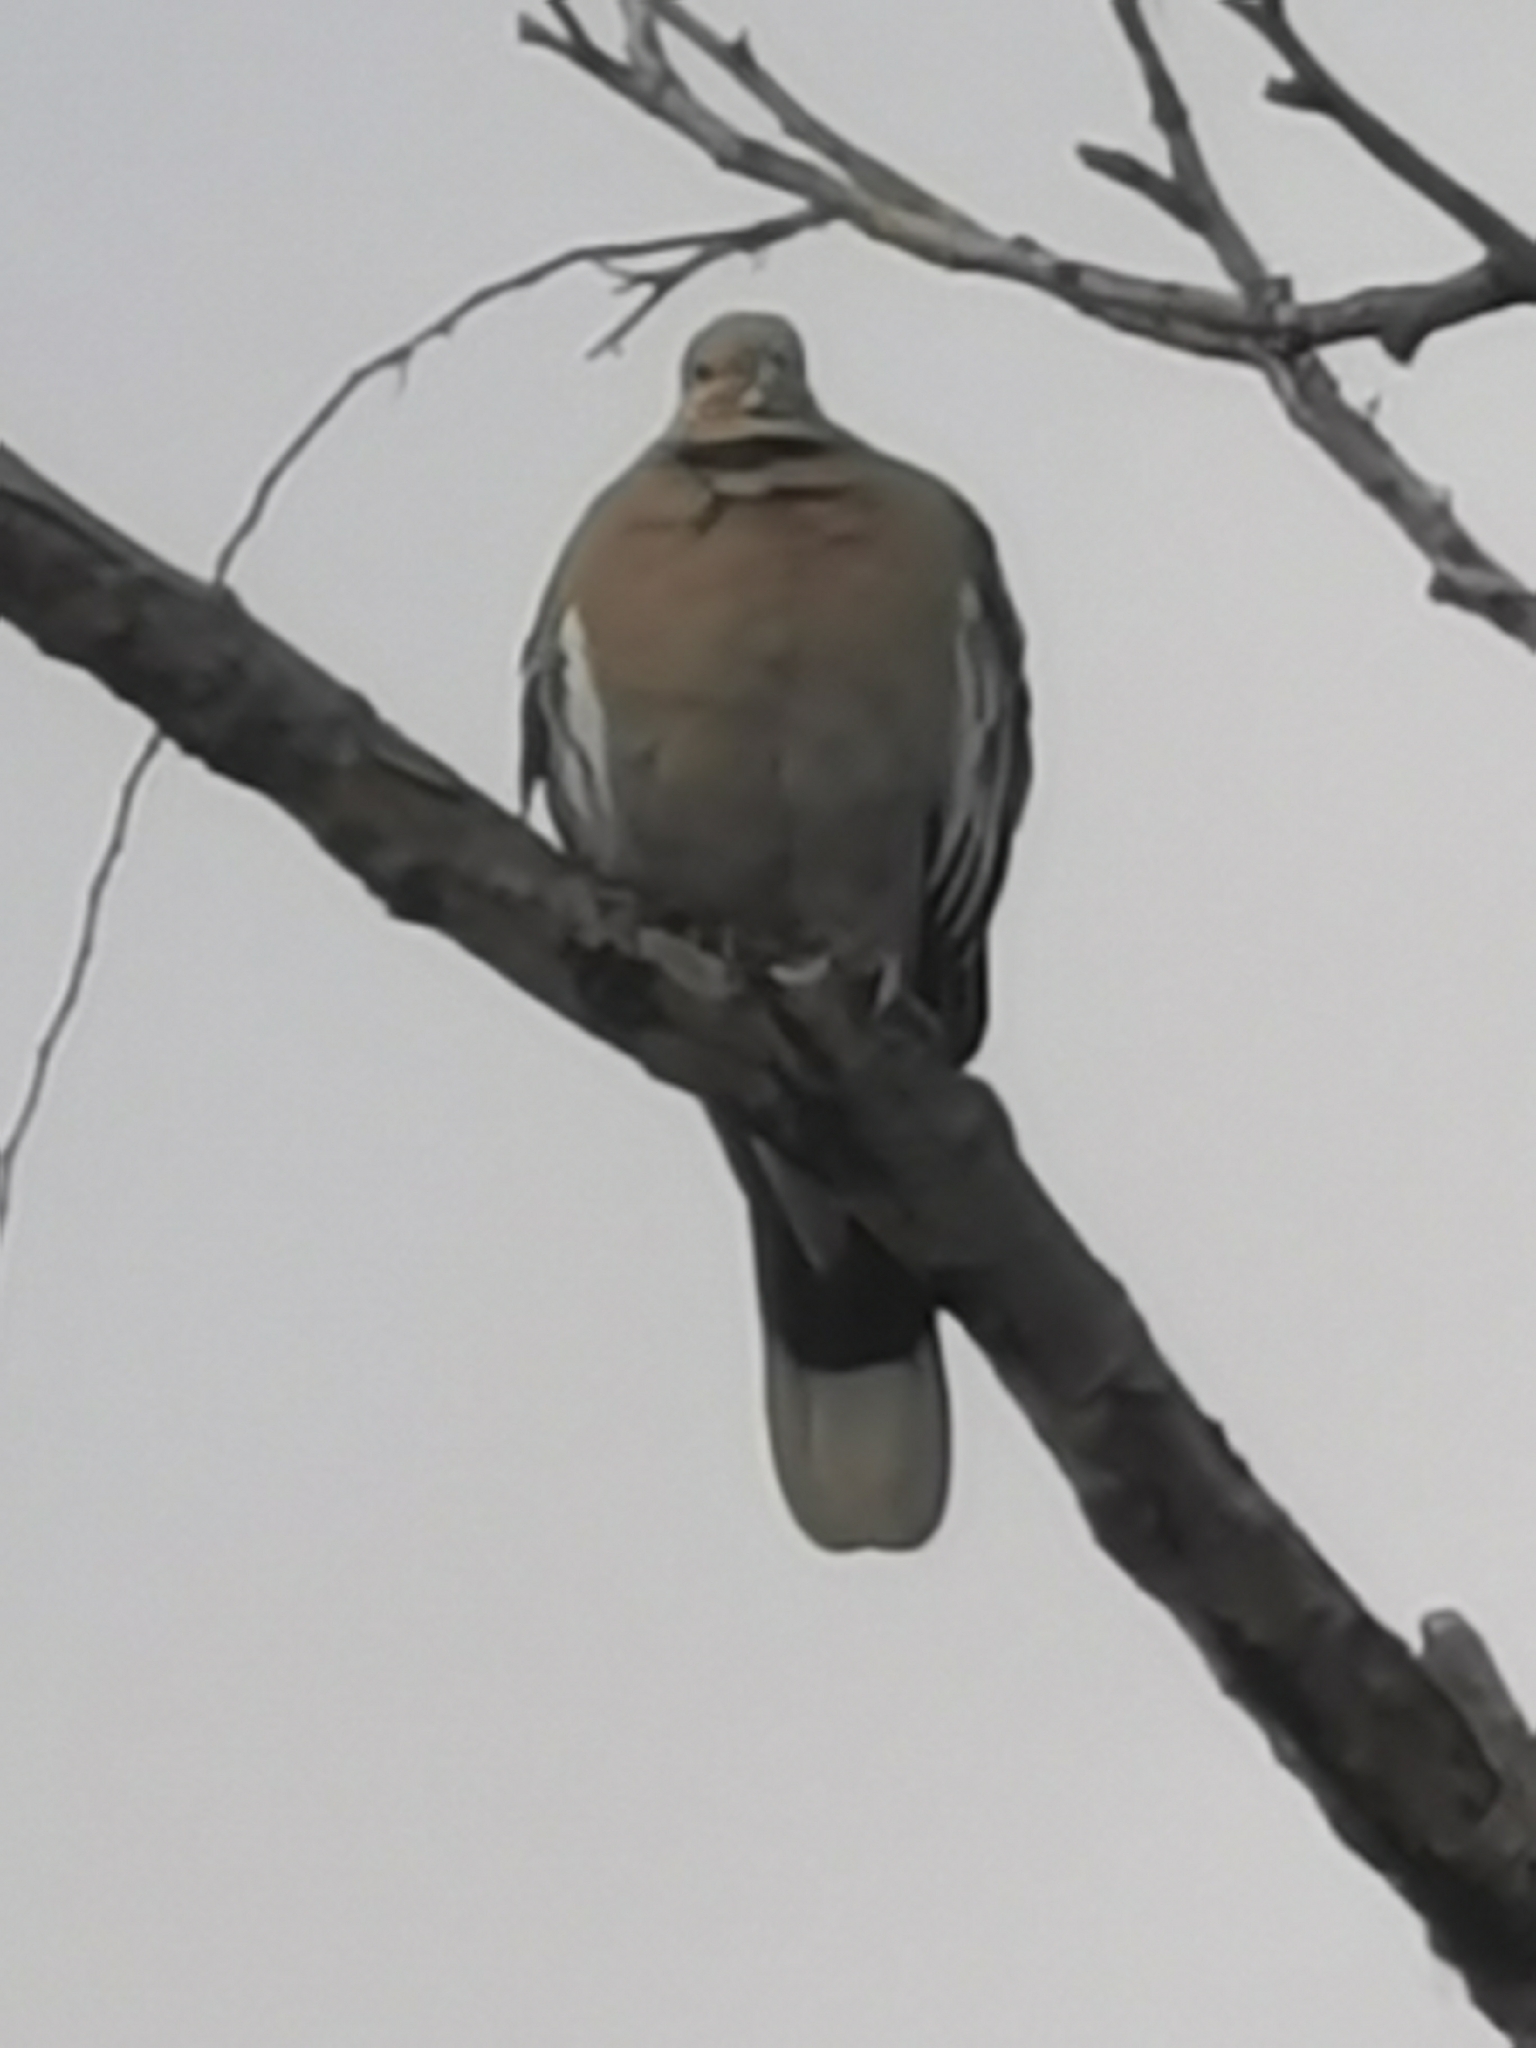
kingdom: Animalia
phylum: Chordata
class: Aves
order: Columbiformes
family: Columbidae
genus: Zenaida
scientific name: Zenaida asiatica
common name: White-winged dove
